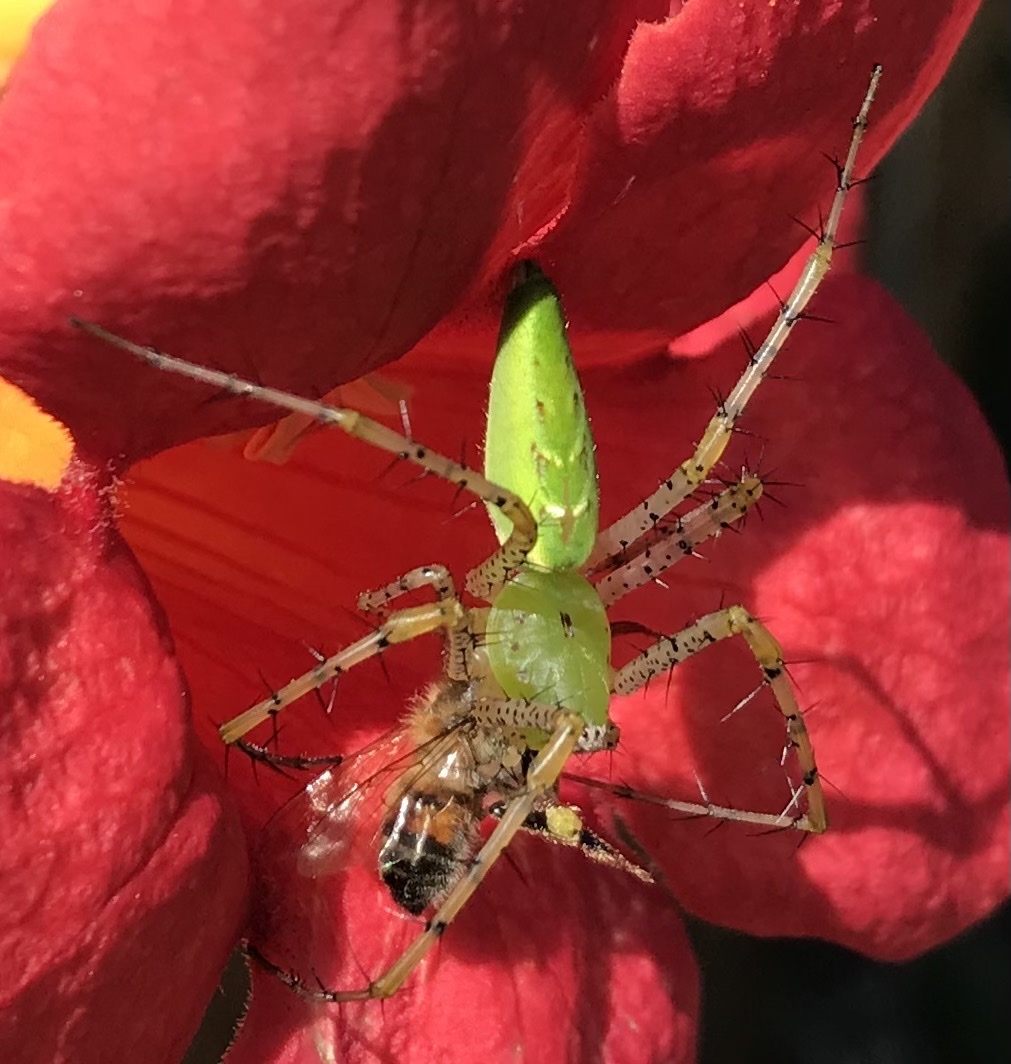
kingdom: Animalia
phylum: Arthropoda
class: Arachnida
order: Araneae
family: Oxyopidae
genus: Peucetia
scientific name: Peucetia viridans
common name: Lynx spiders
